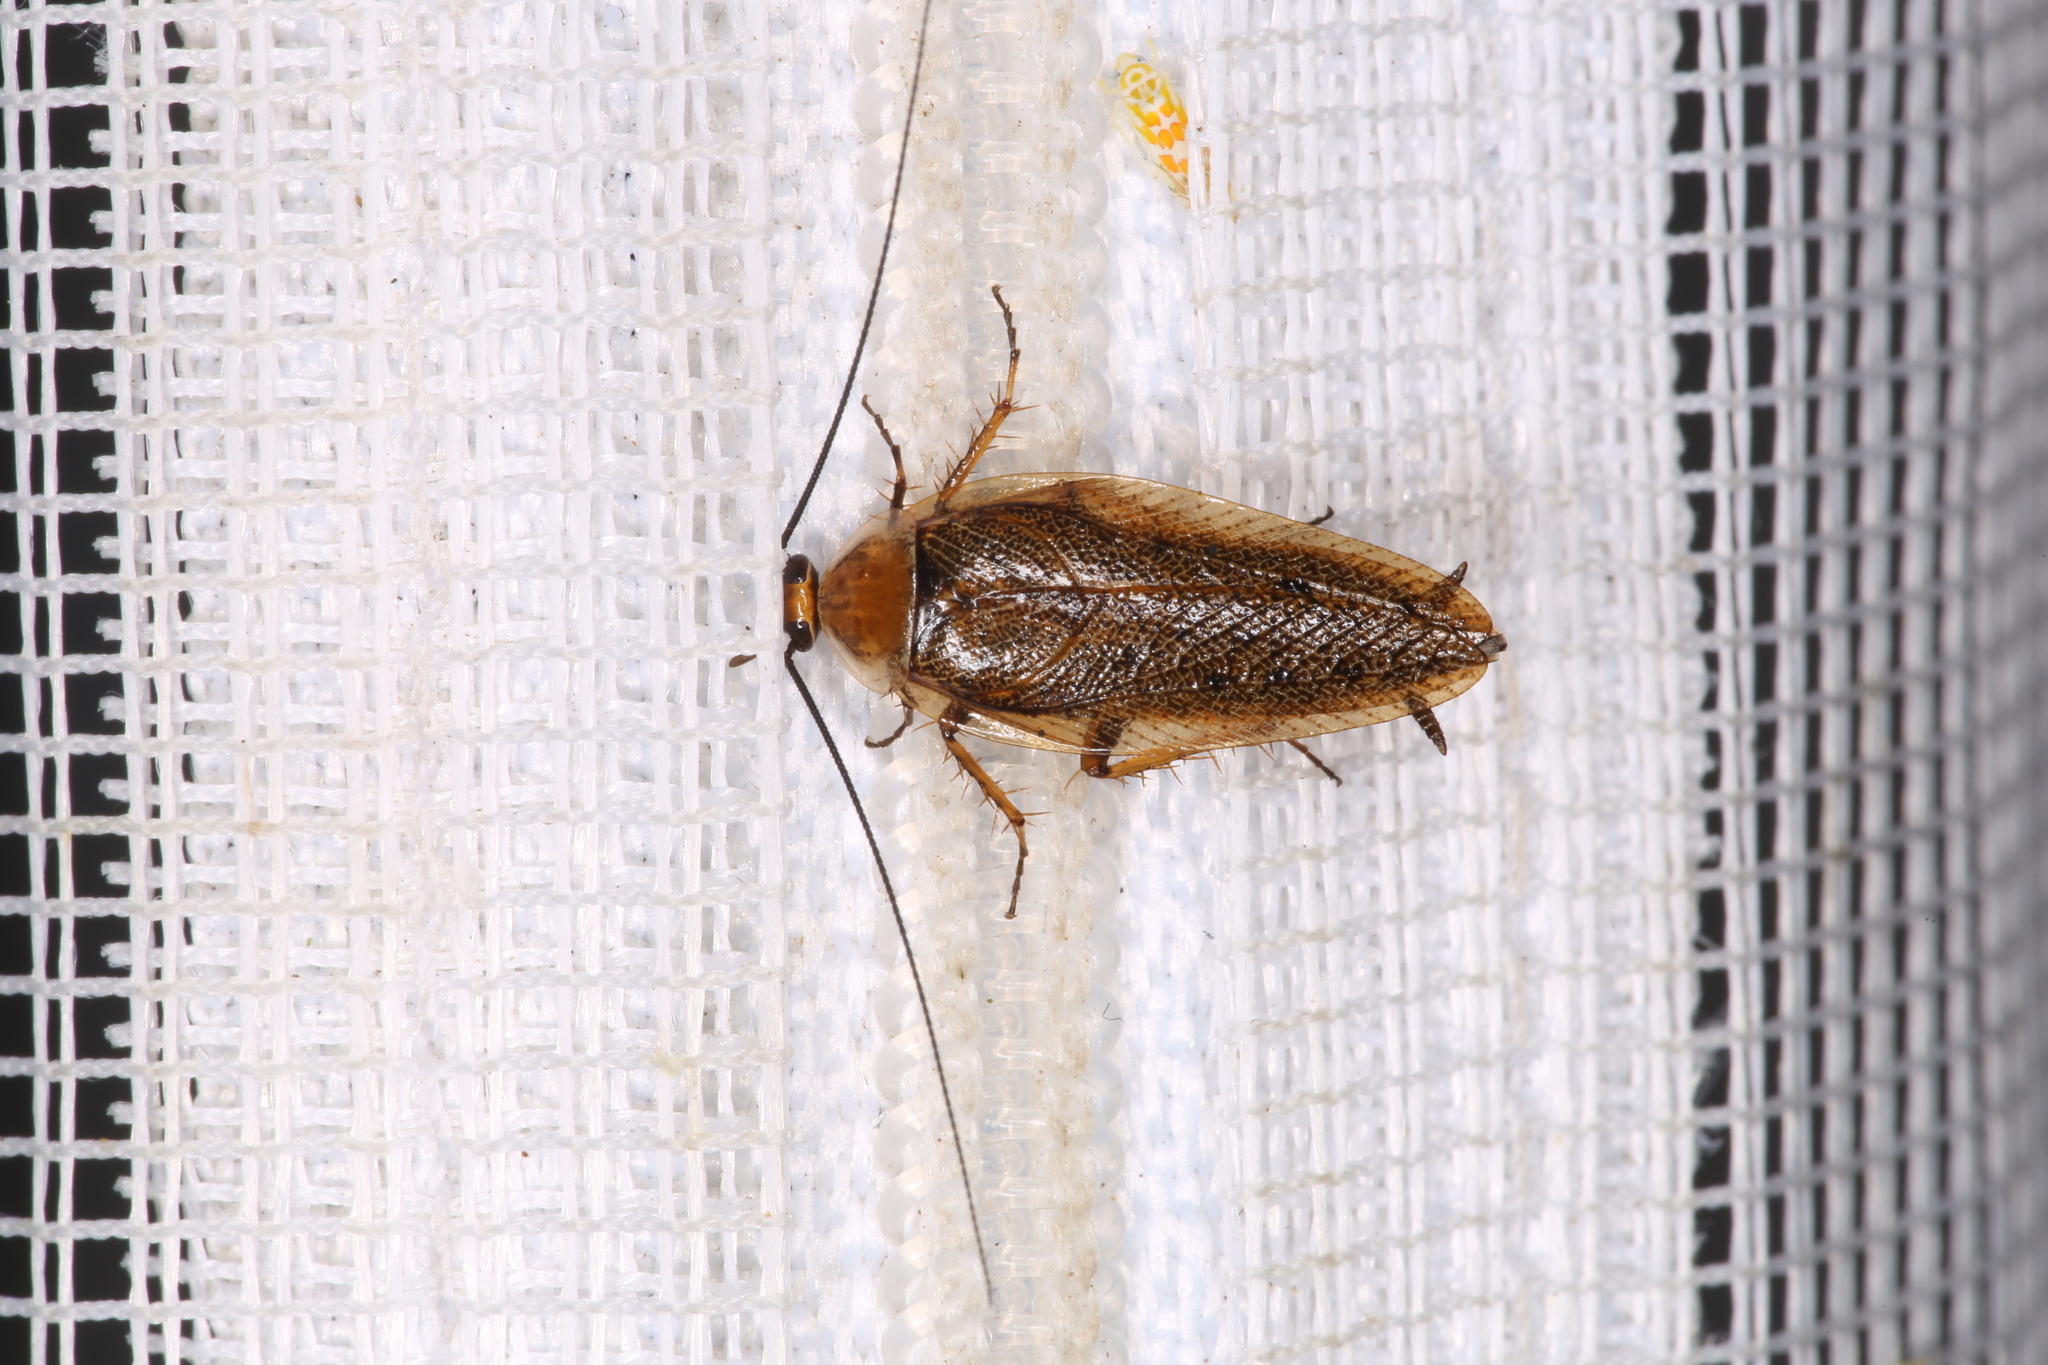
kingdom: Animalia
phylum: Arthropoda
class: Insecta
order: Blattodea
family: Ectobiidae
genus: Ectobius
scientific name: Ectobius vittiventris
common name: Garden cockroach
